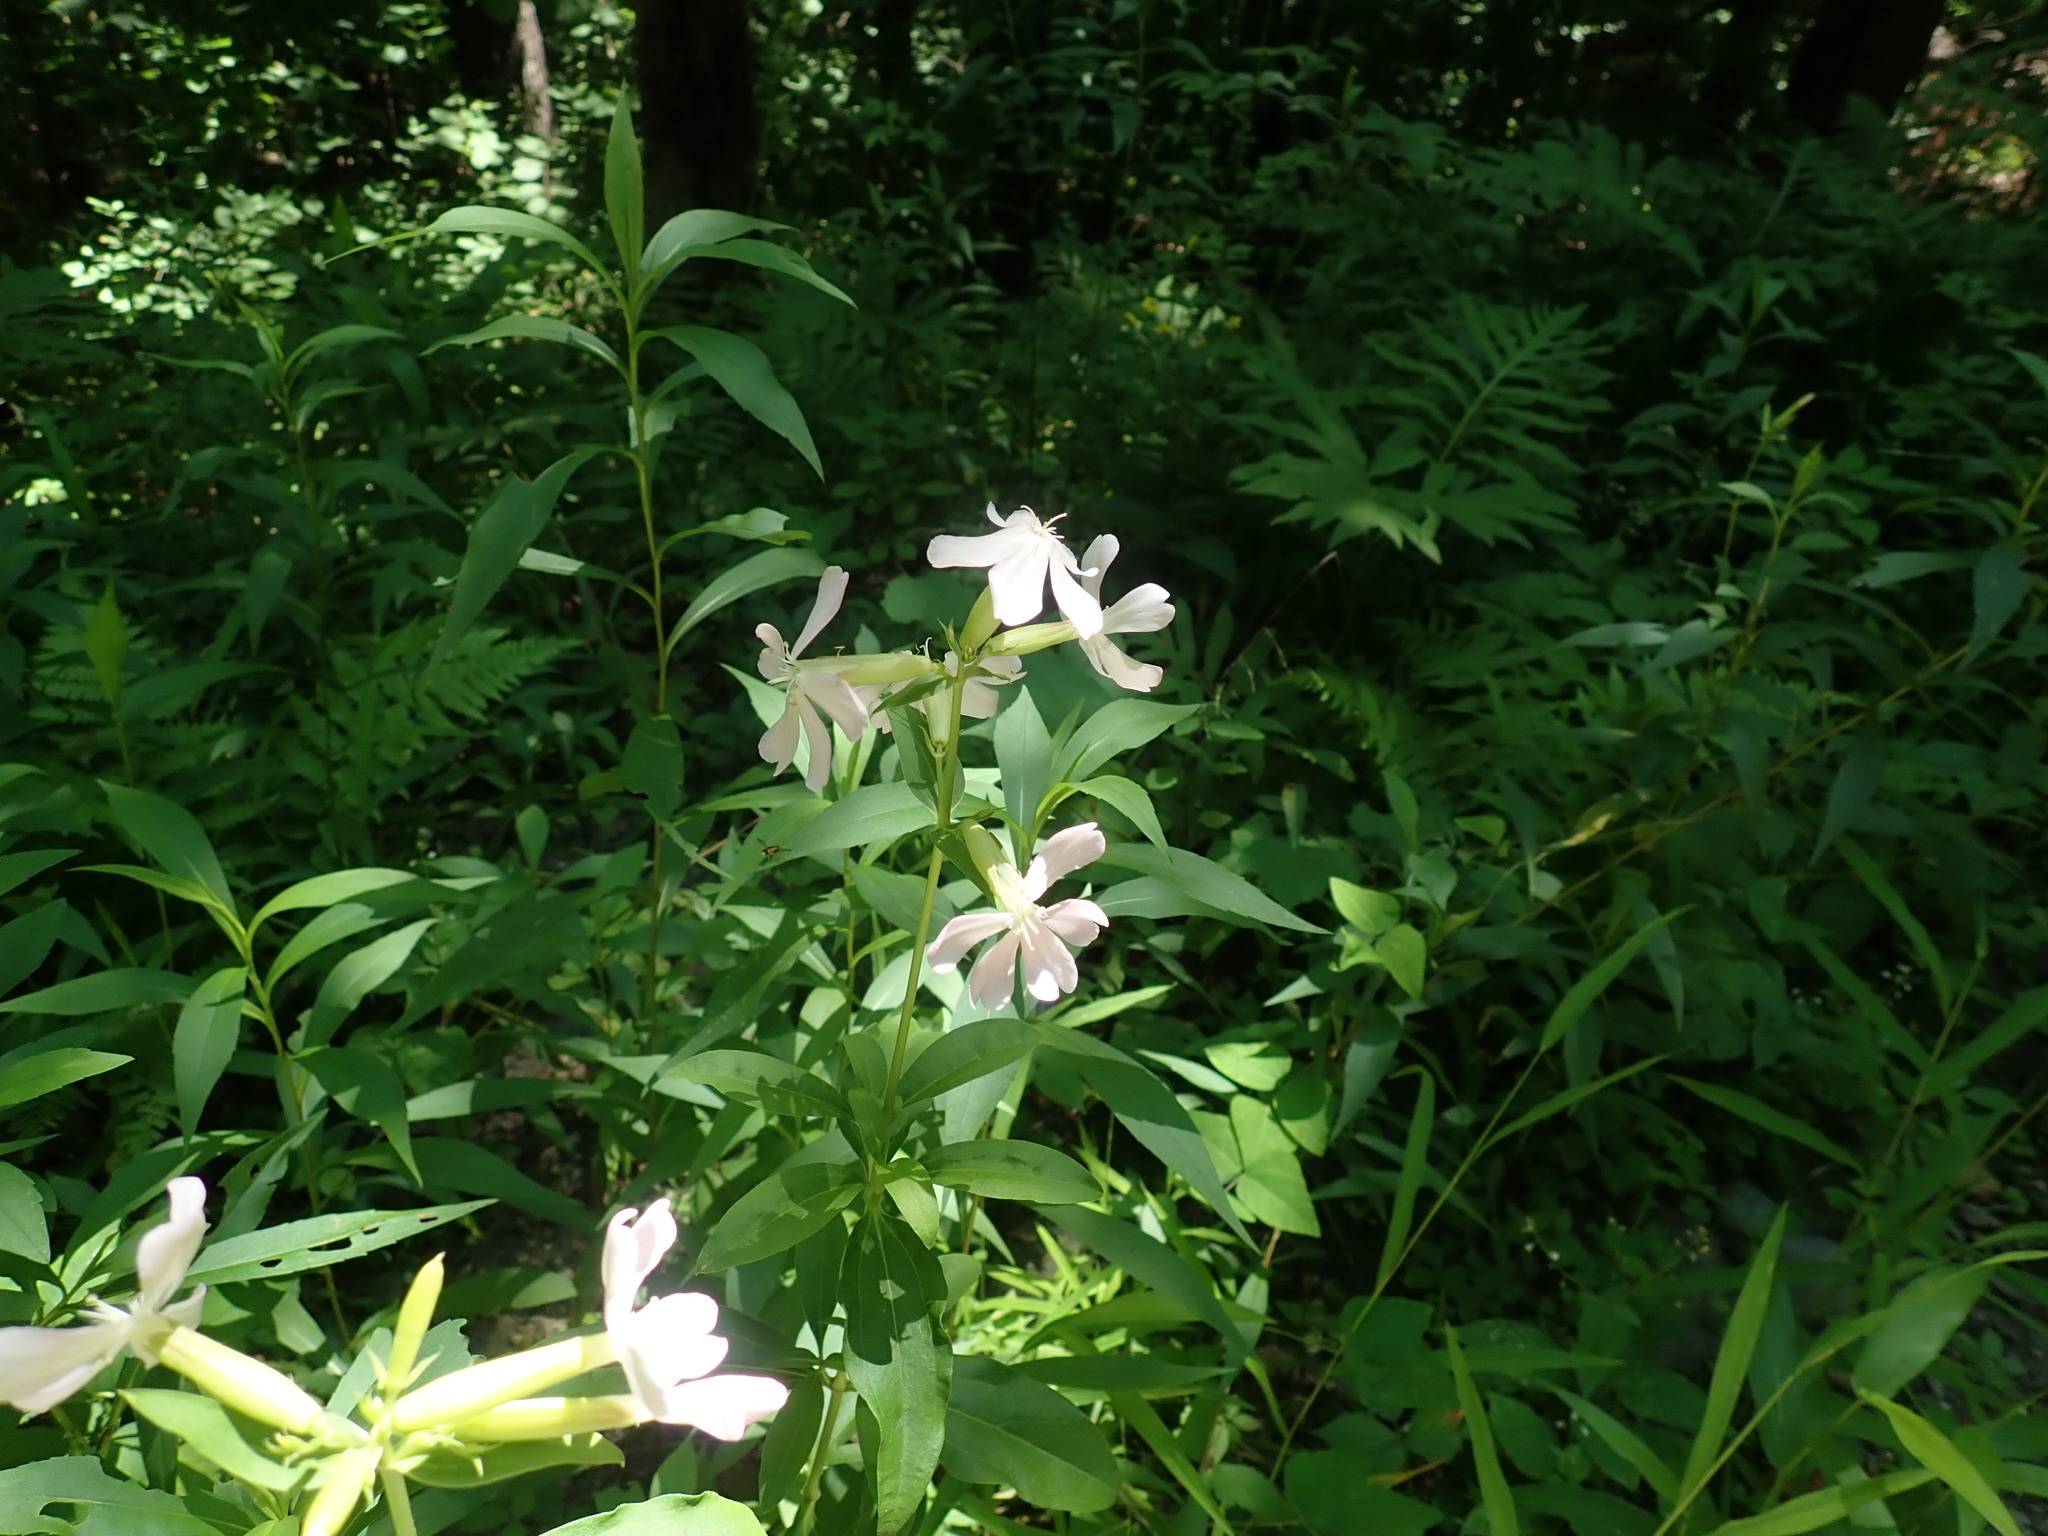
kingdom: Plantae
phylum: Tracheophyta
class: Magnoliopsida
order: Caryophyllales
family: Caryophyllaceae
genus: Saponaria
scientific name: Saponaria officinalis
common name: Soapwort
